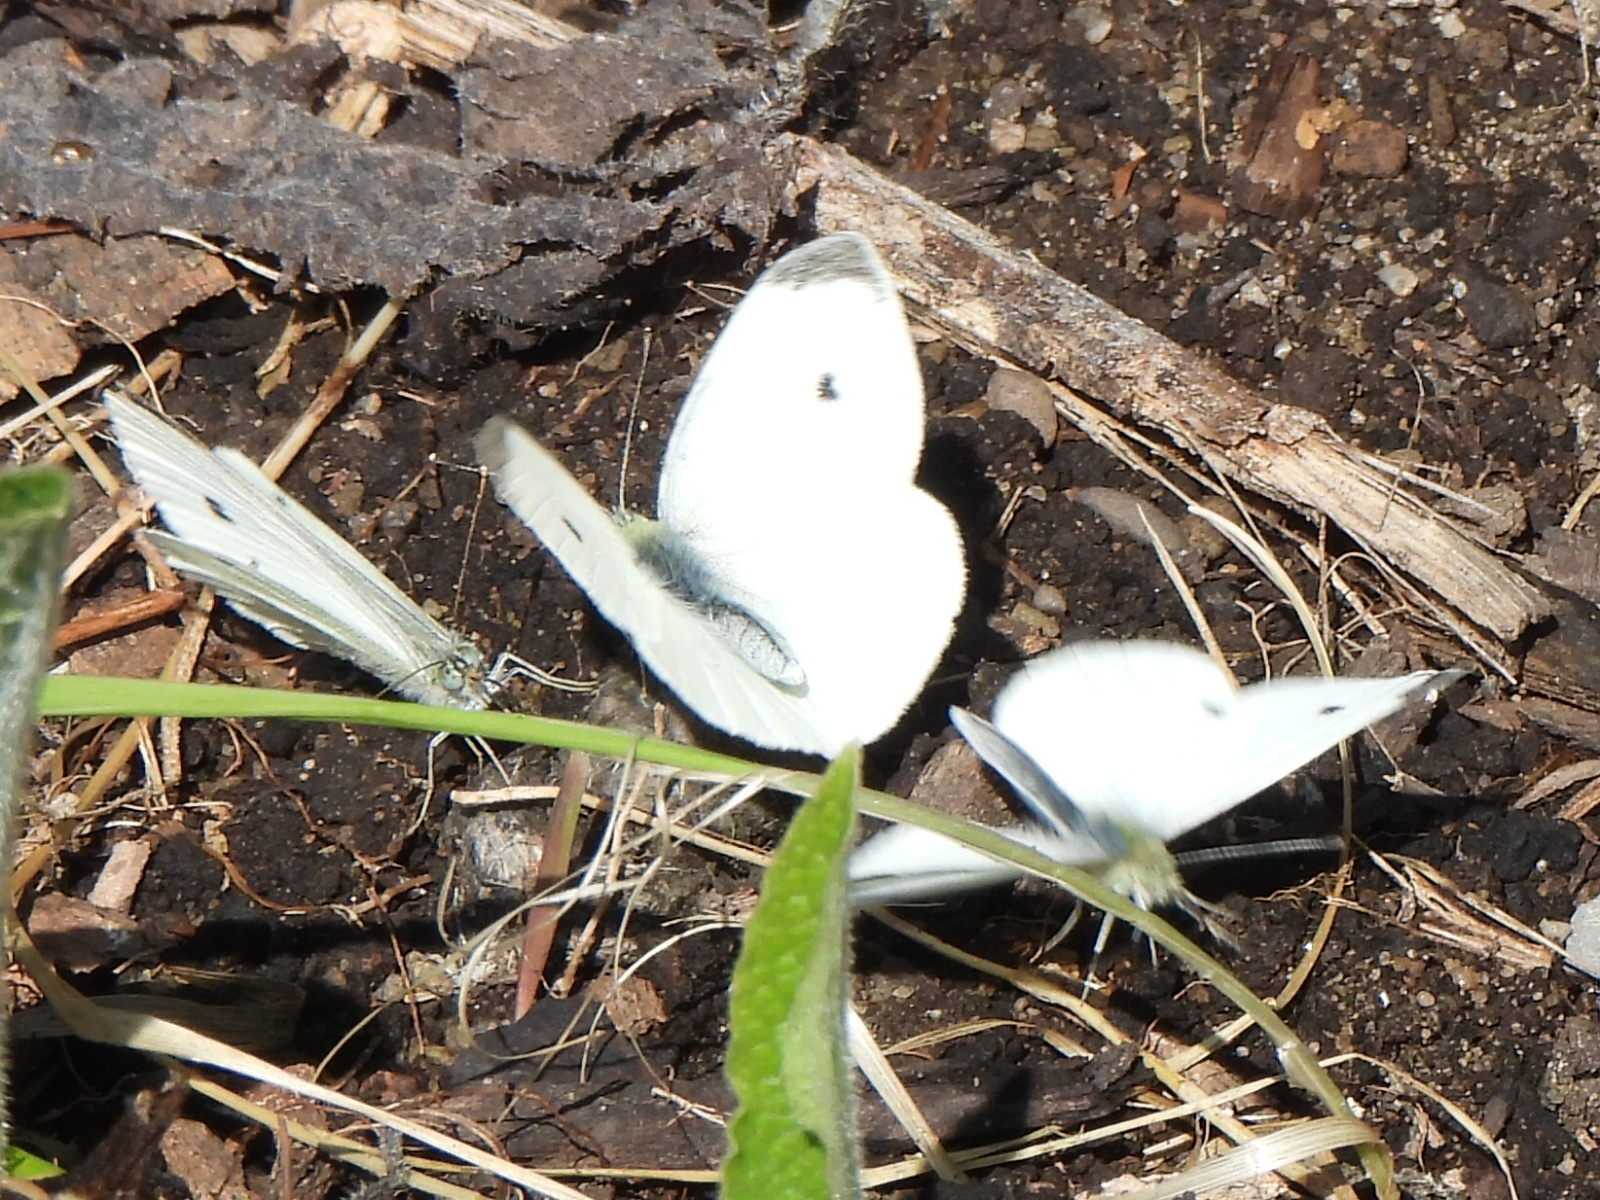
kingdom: Animalia
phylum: Arthropoda
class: Insecta
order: Lepidoptera
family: Pieridae
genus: Pieris
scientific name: Pieris rapae
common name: Small white
